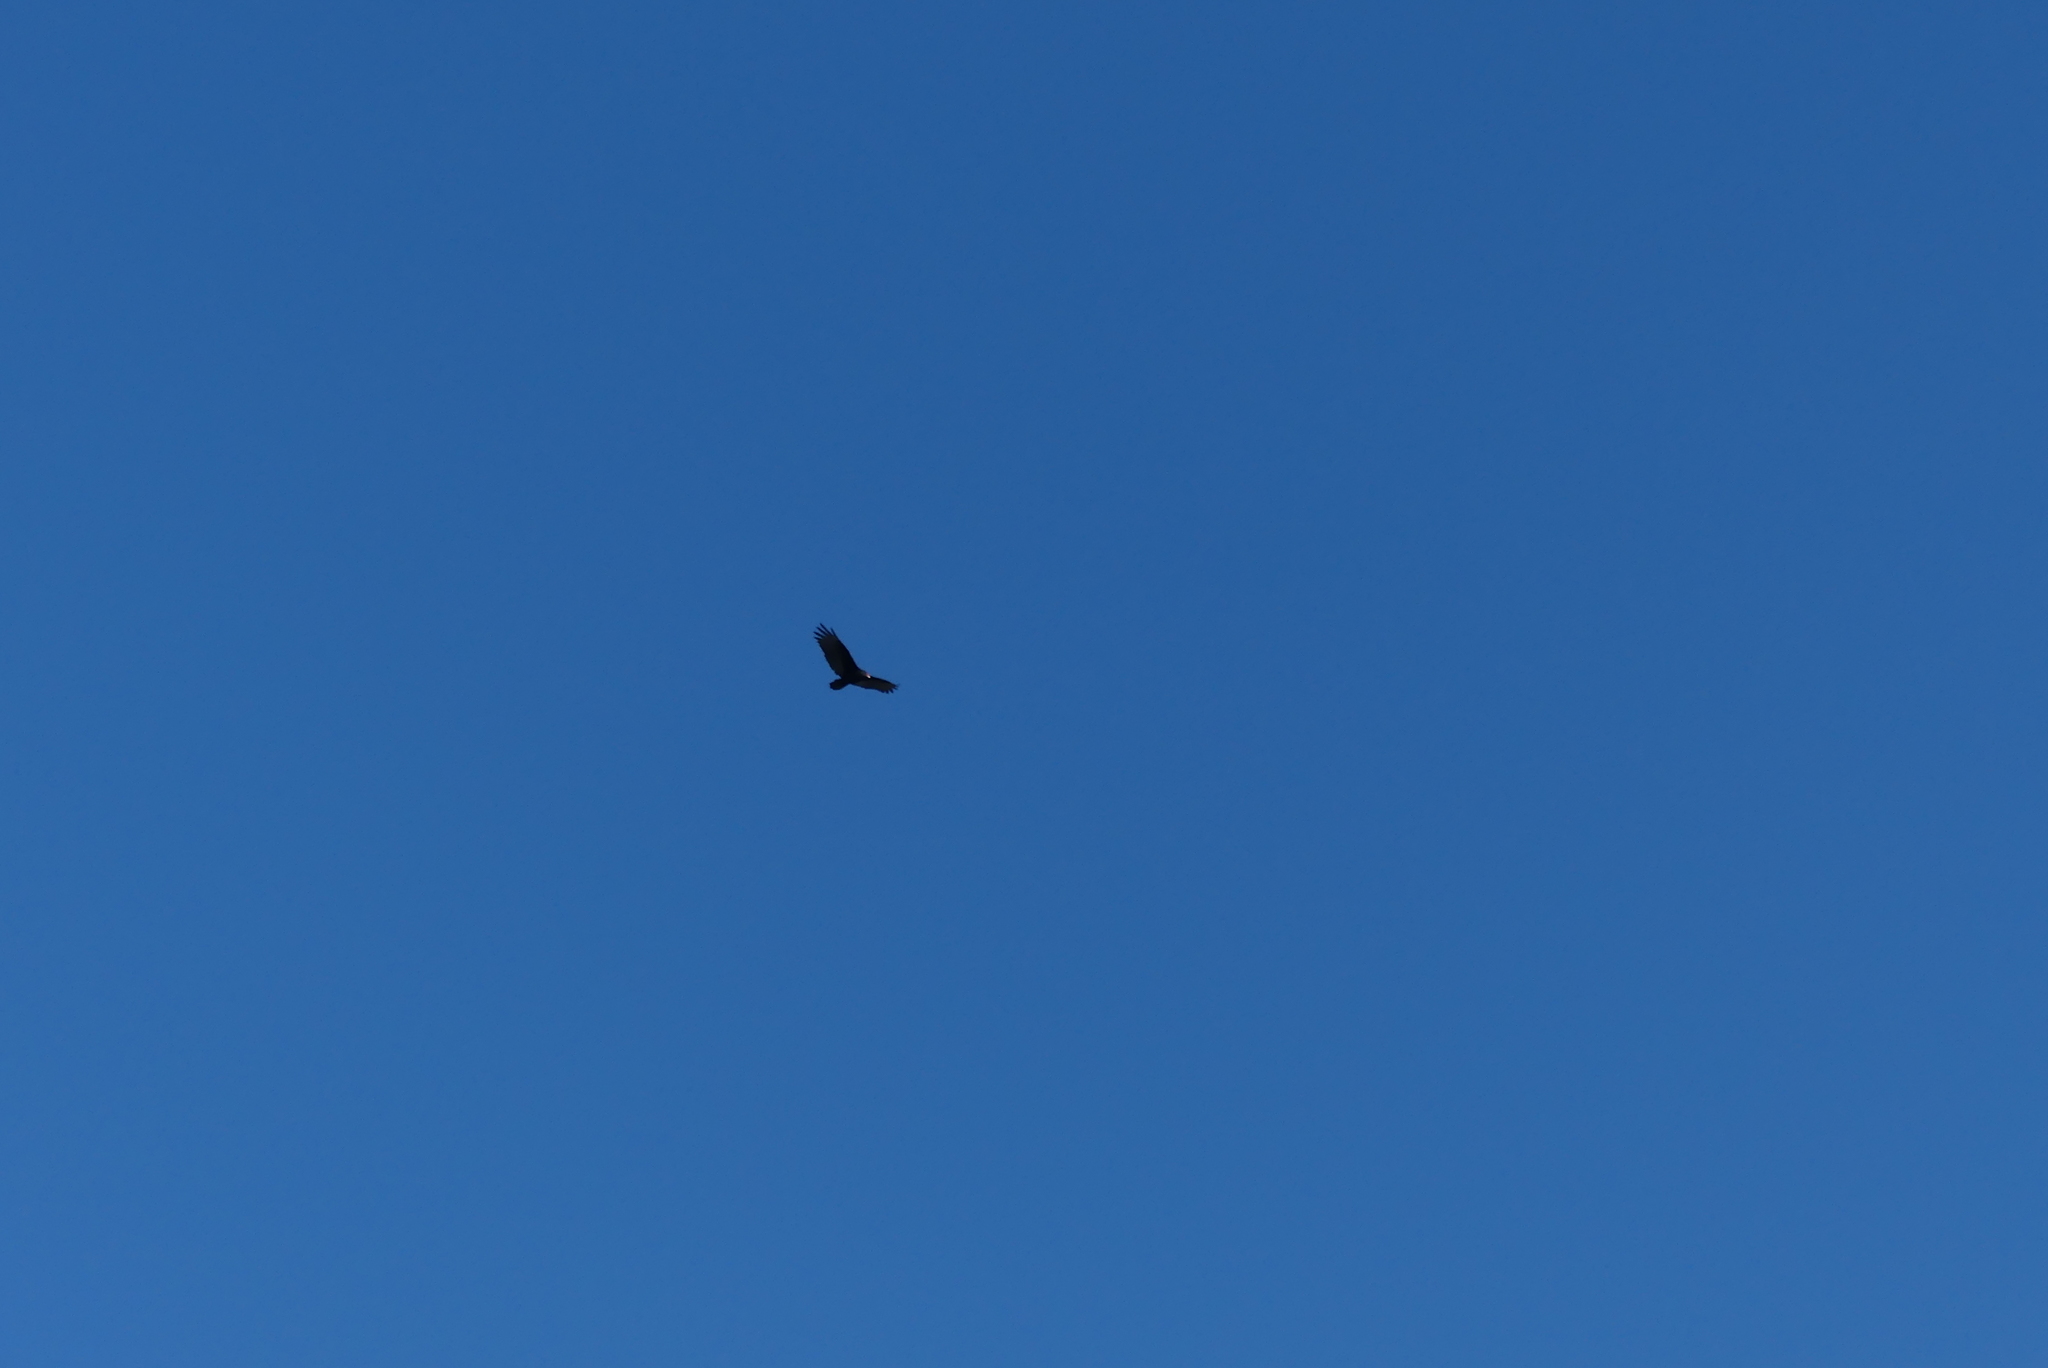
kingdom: Animalia
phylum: Chordata
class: Aves
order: Accipitriformes
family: Cathartidae
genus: Cathartes
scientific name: Cathartes aura
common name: Turkey vulture
